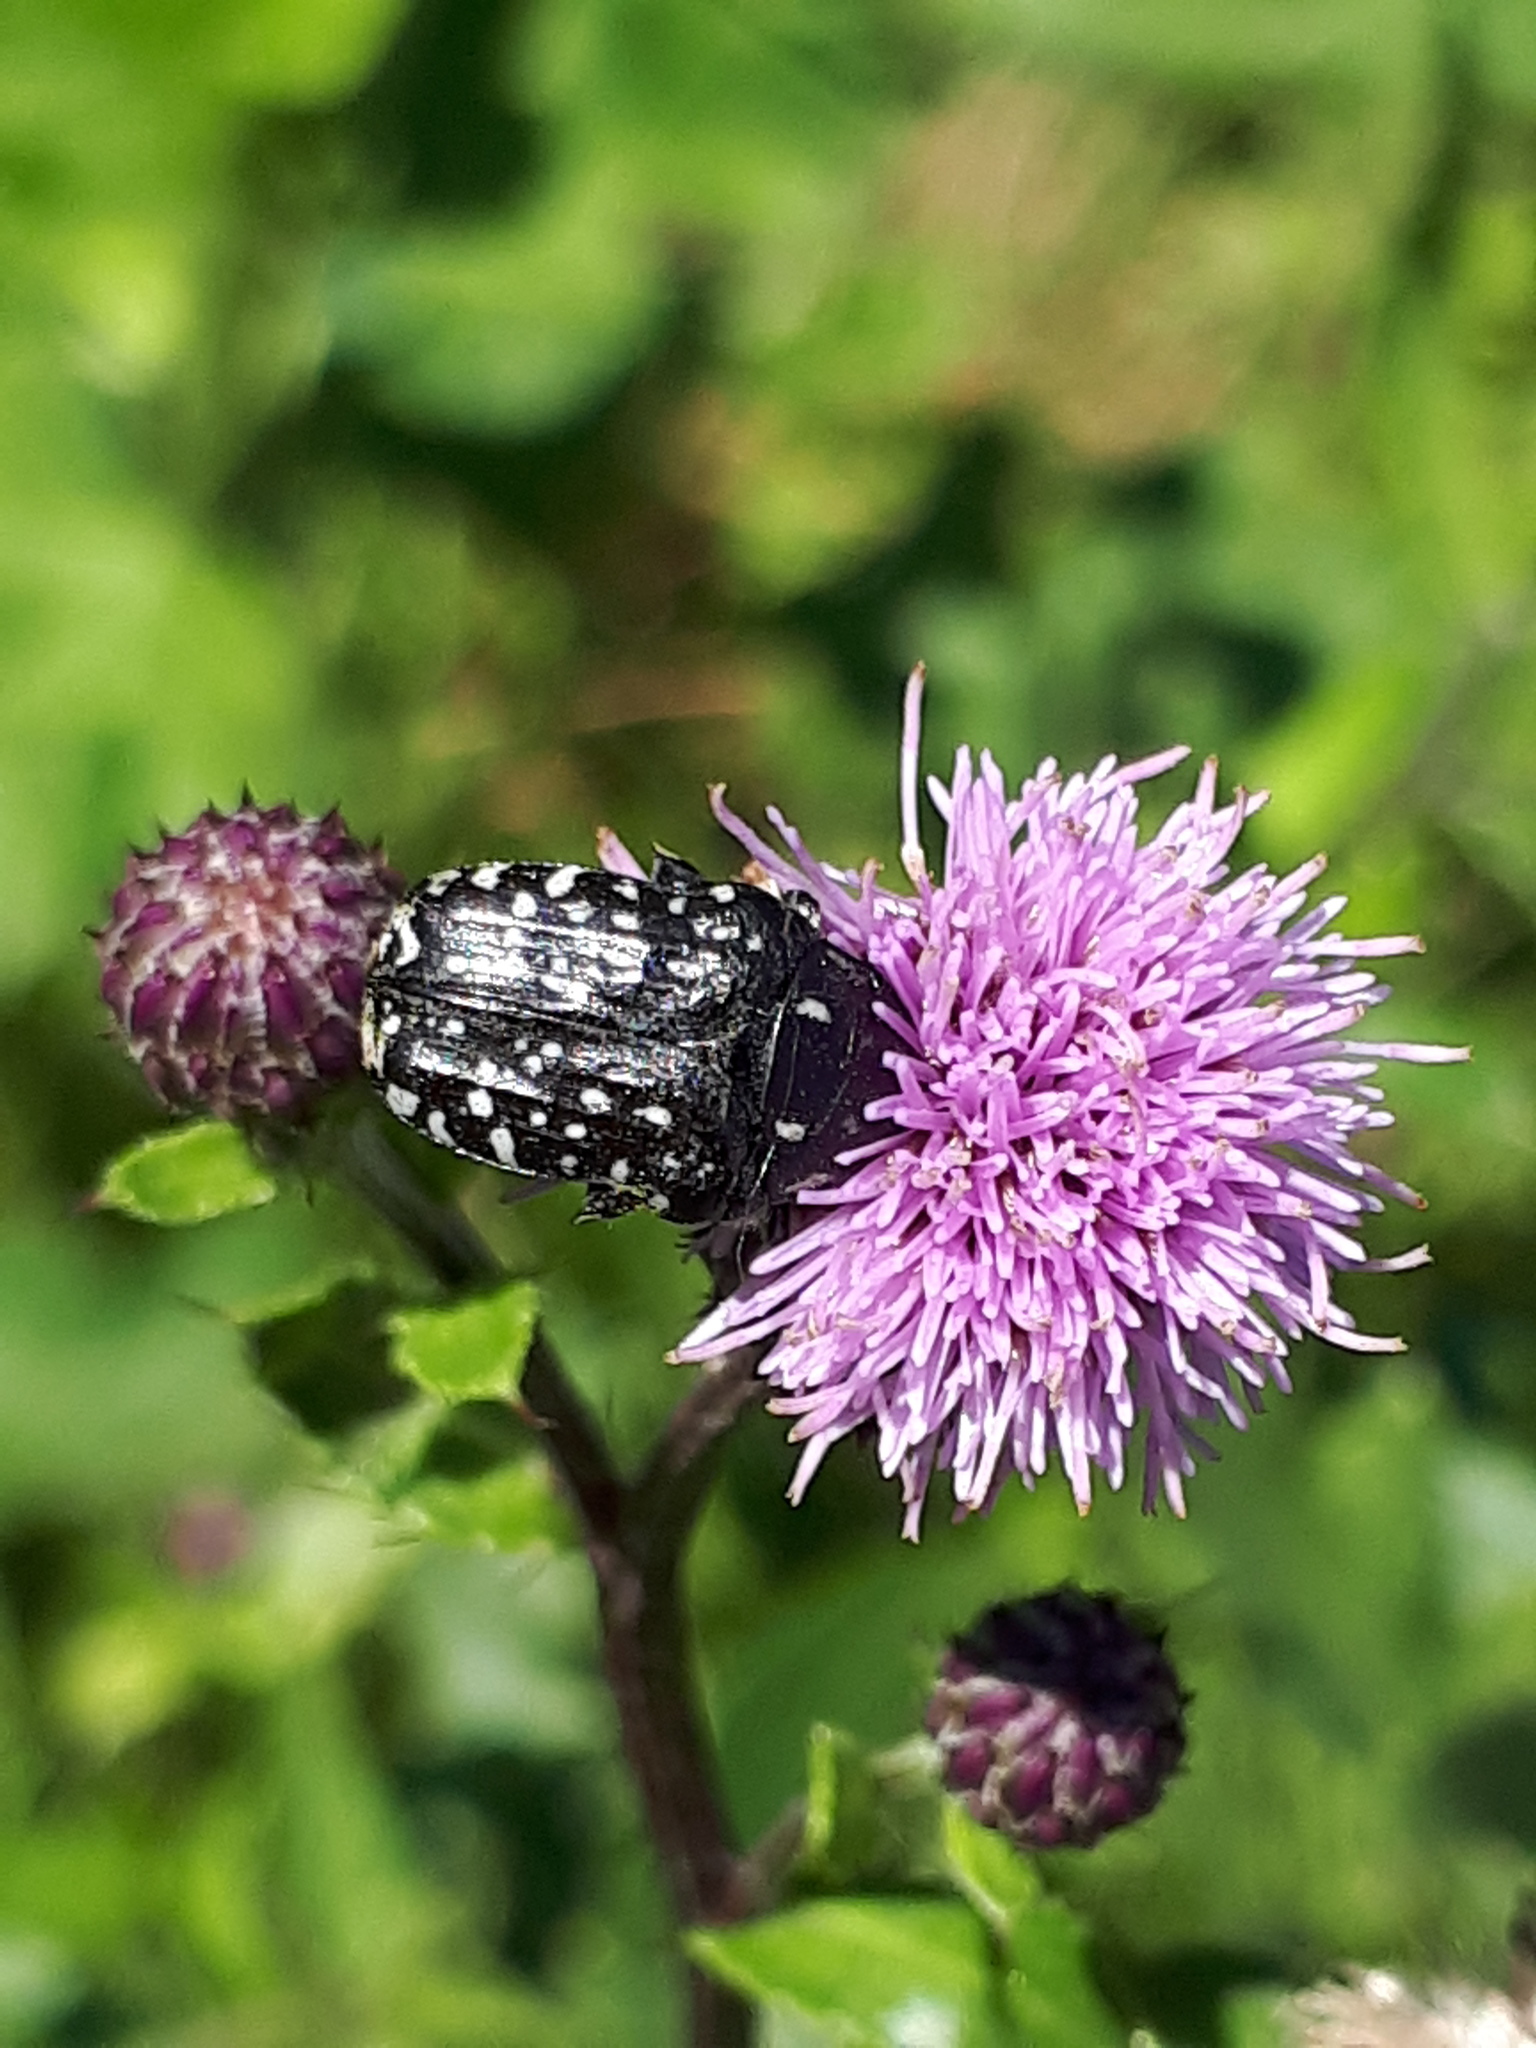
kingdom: Animalia
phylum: Arthropoda
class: Insecta
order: Coleoptera
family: Scarabaeidae
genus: Oxythyrea
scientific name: Oxythyrea funesta
